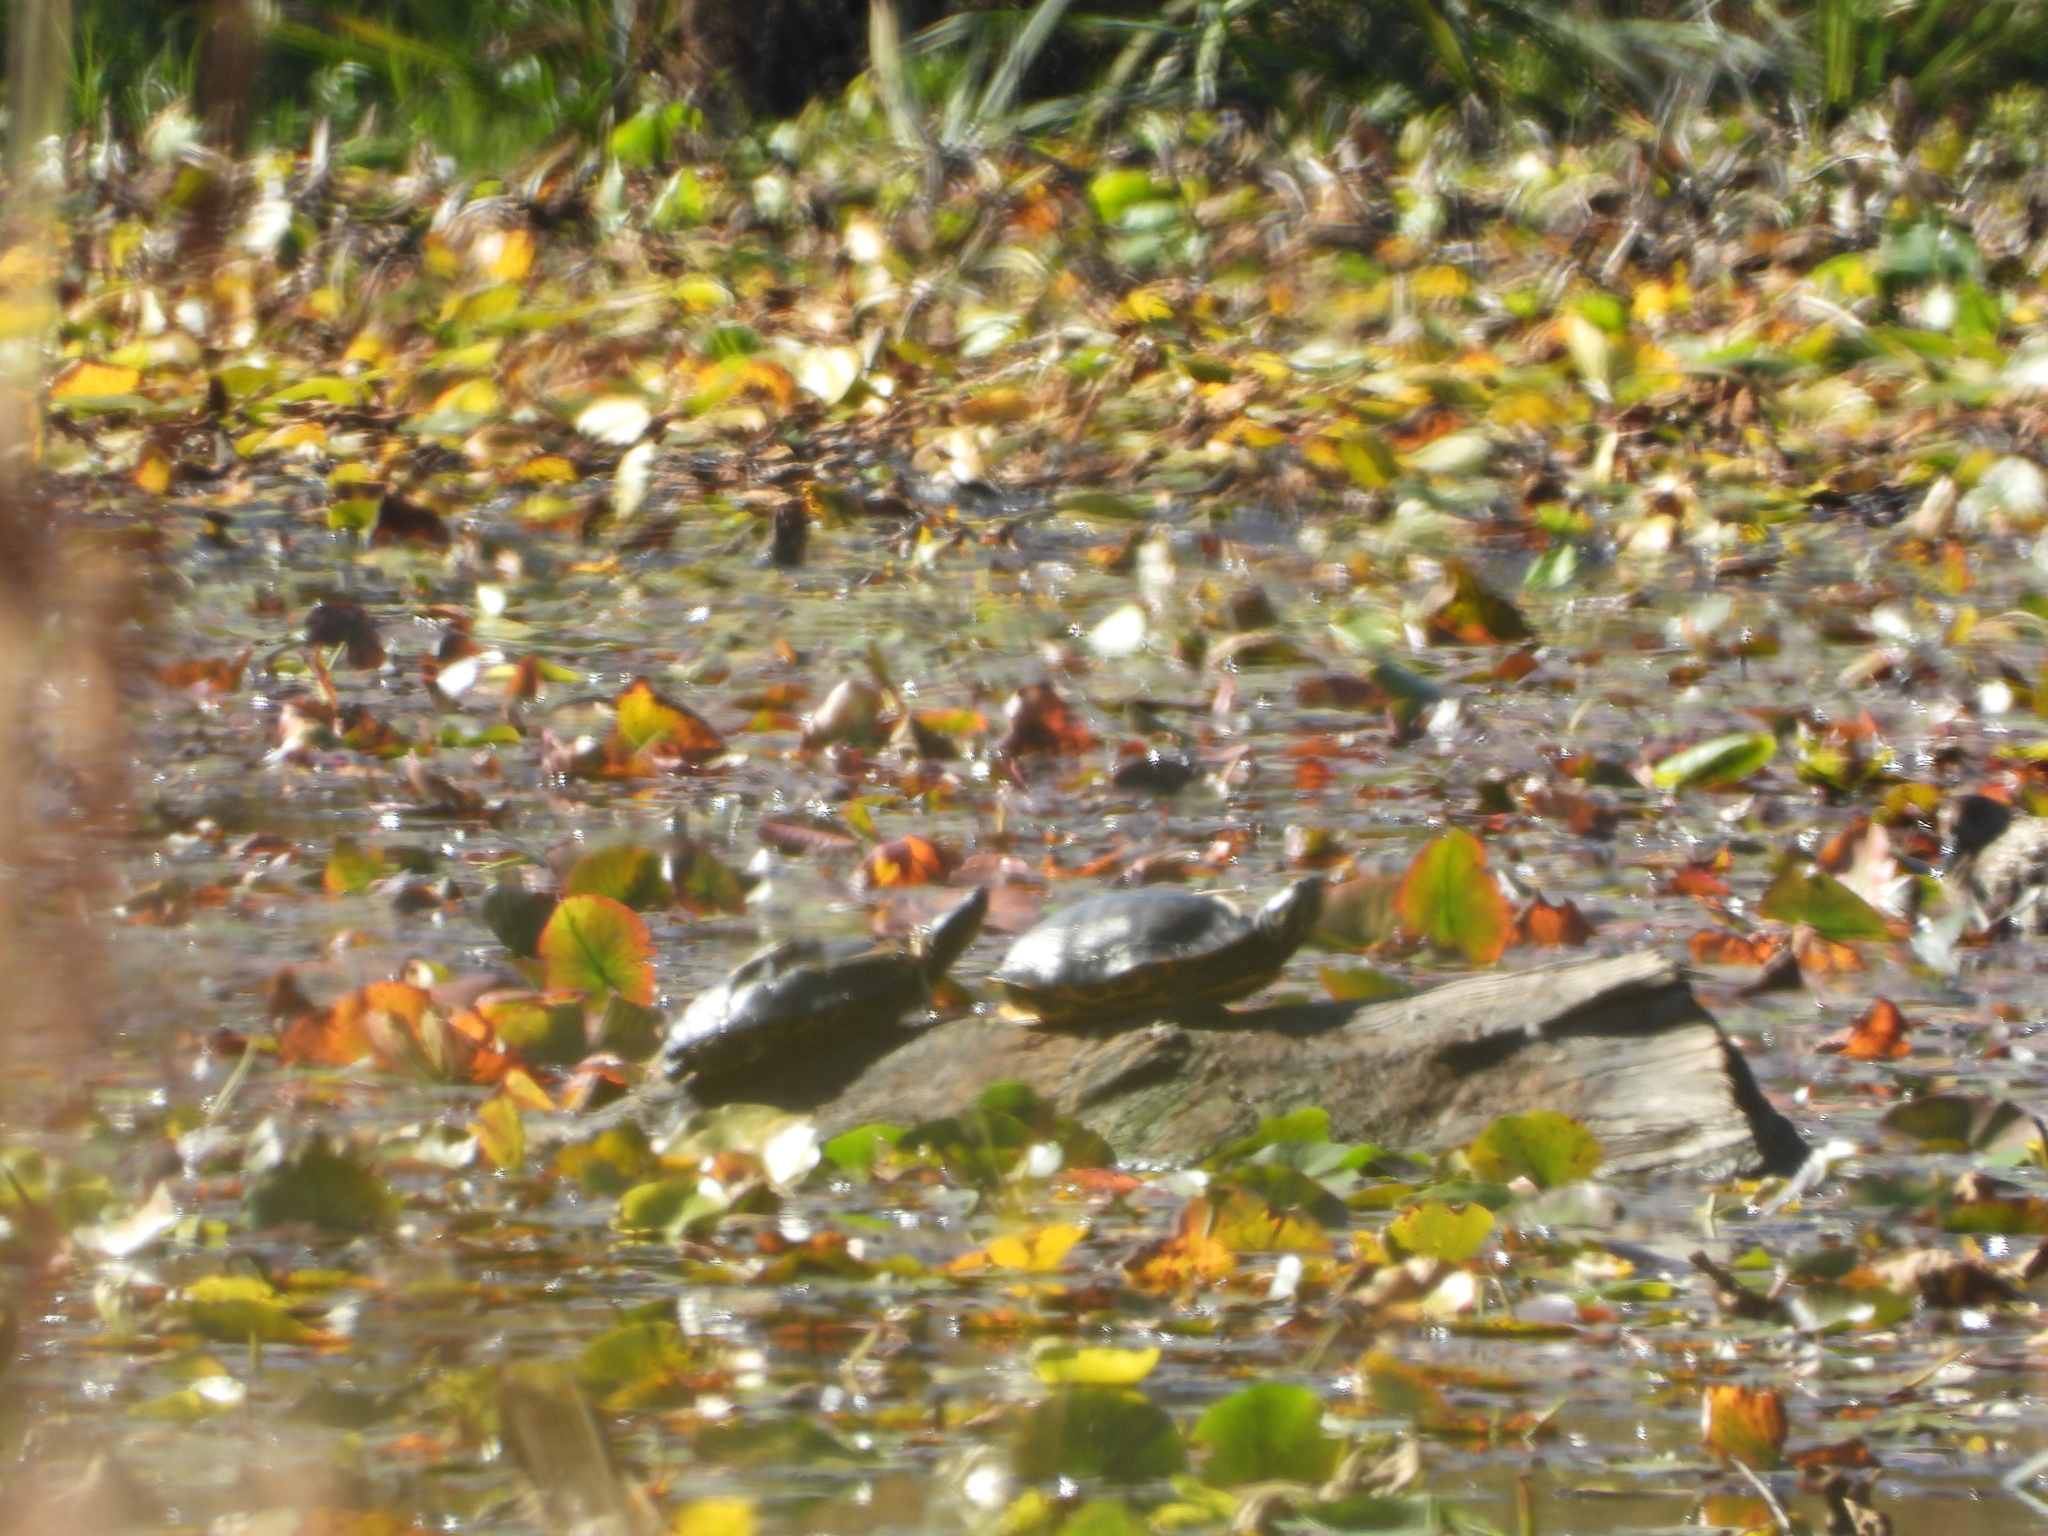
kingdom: Animalia
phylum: Chordata
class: Testudines
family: Emydidae
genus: Trachemys
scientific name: Trachemys scripta
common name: Slider
